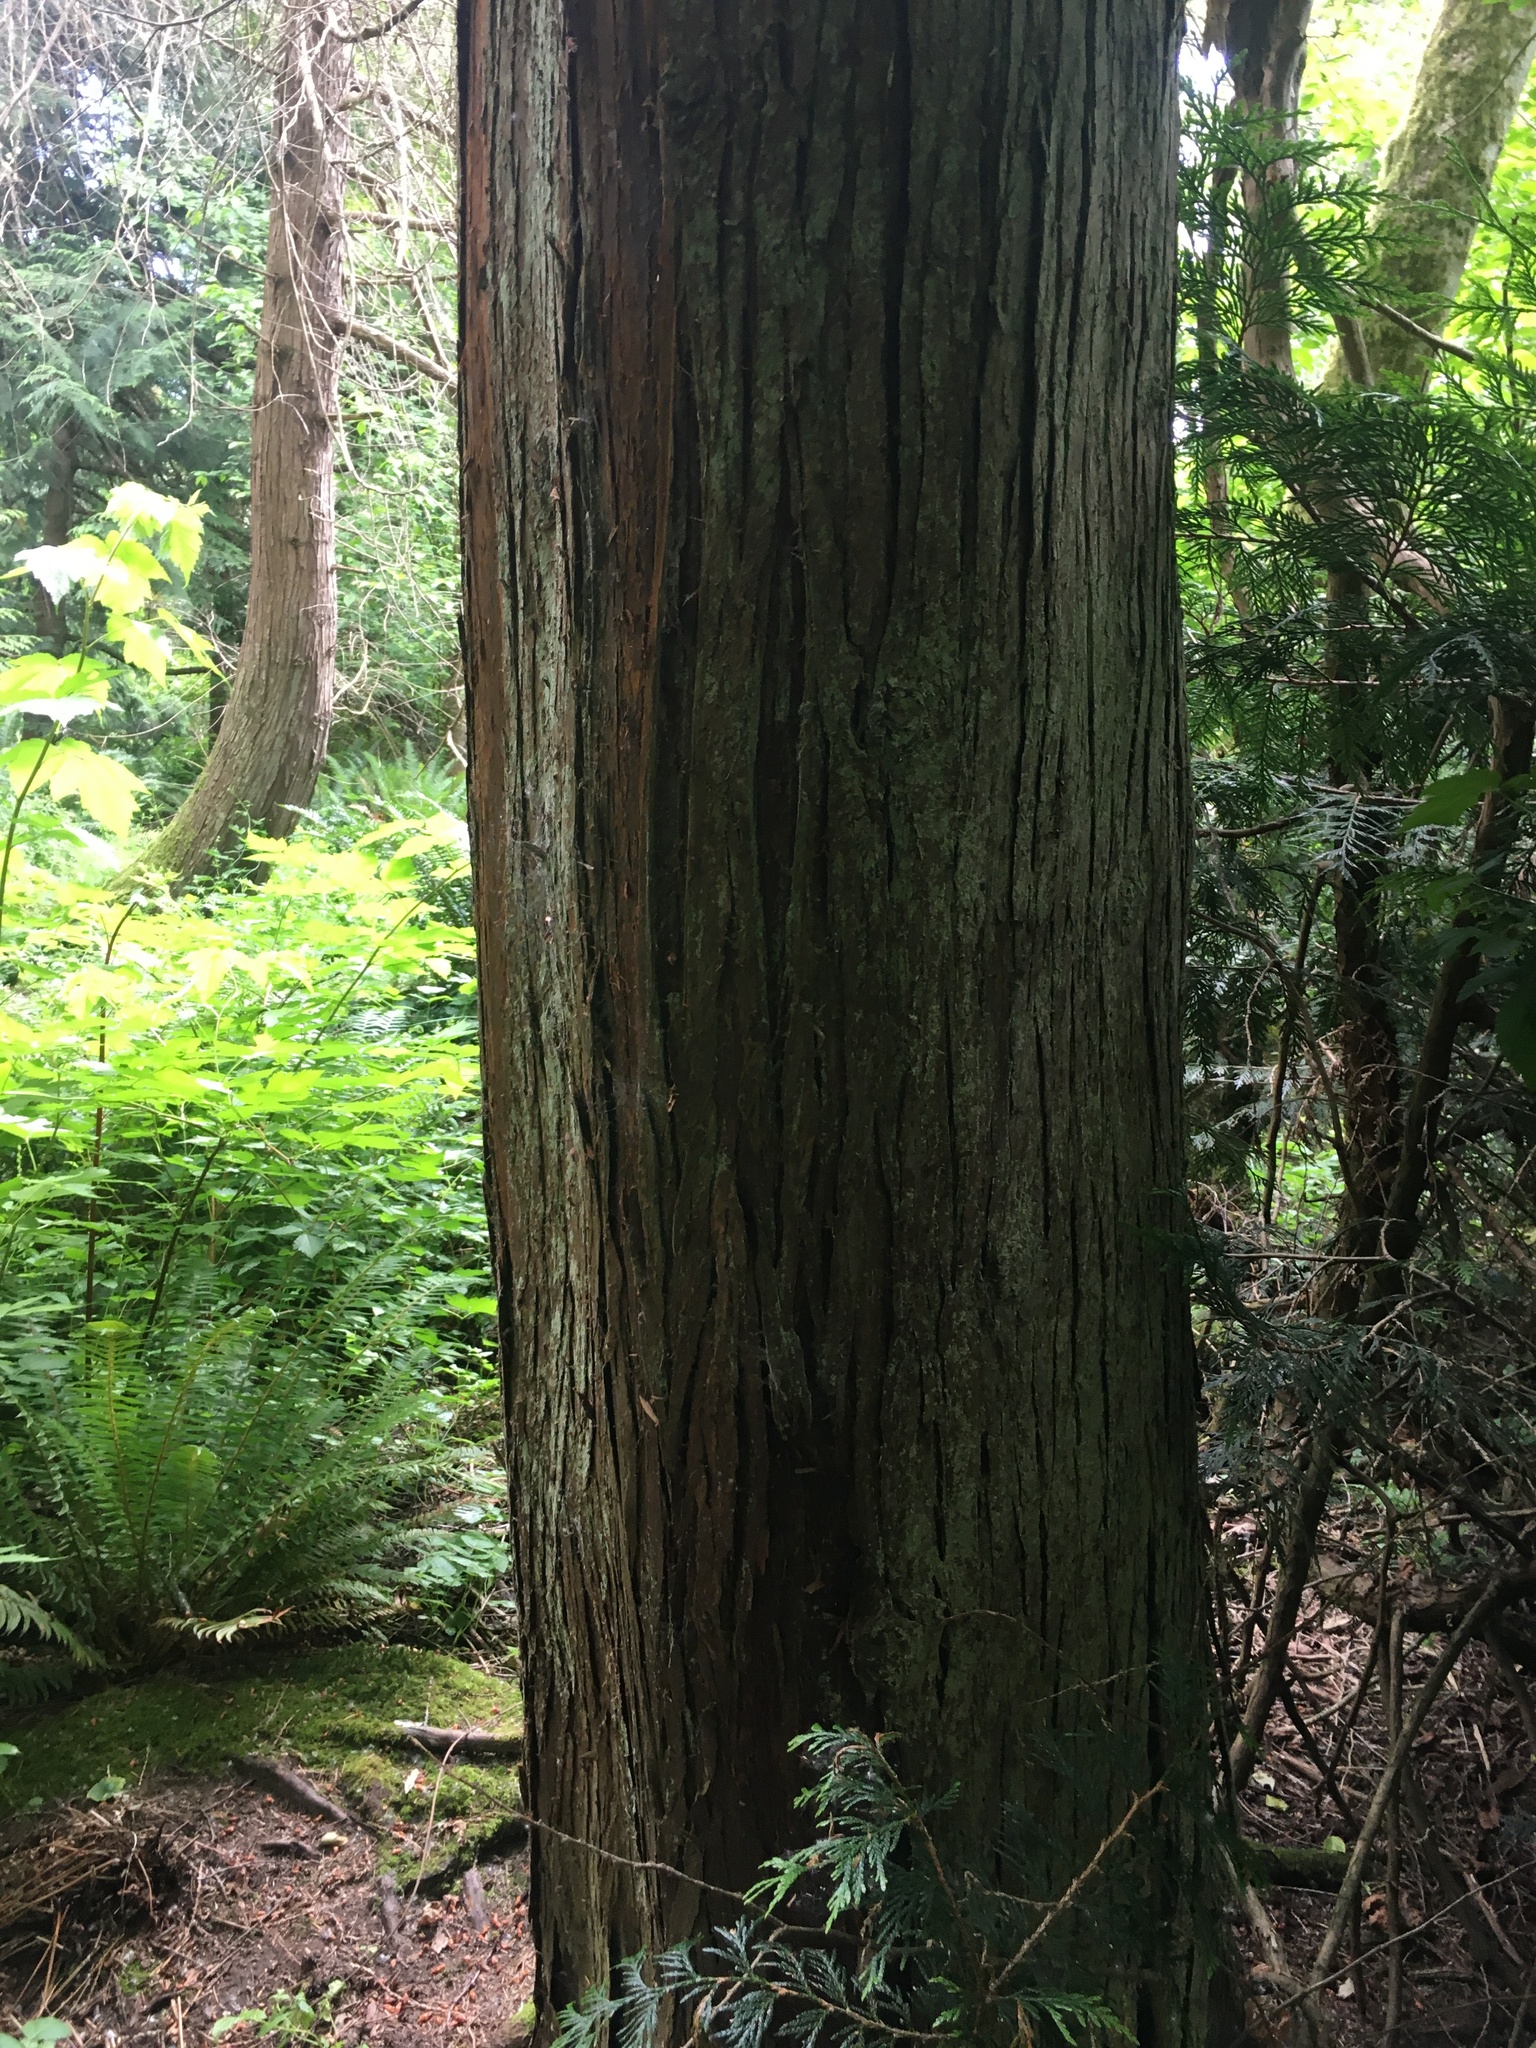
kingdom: Plantae
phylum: Tracheophyta
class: Pinopsida
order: Pinales
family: Cupressaceae
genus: Thuja
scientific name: Thuja plicata
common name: Western red-cedar
